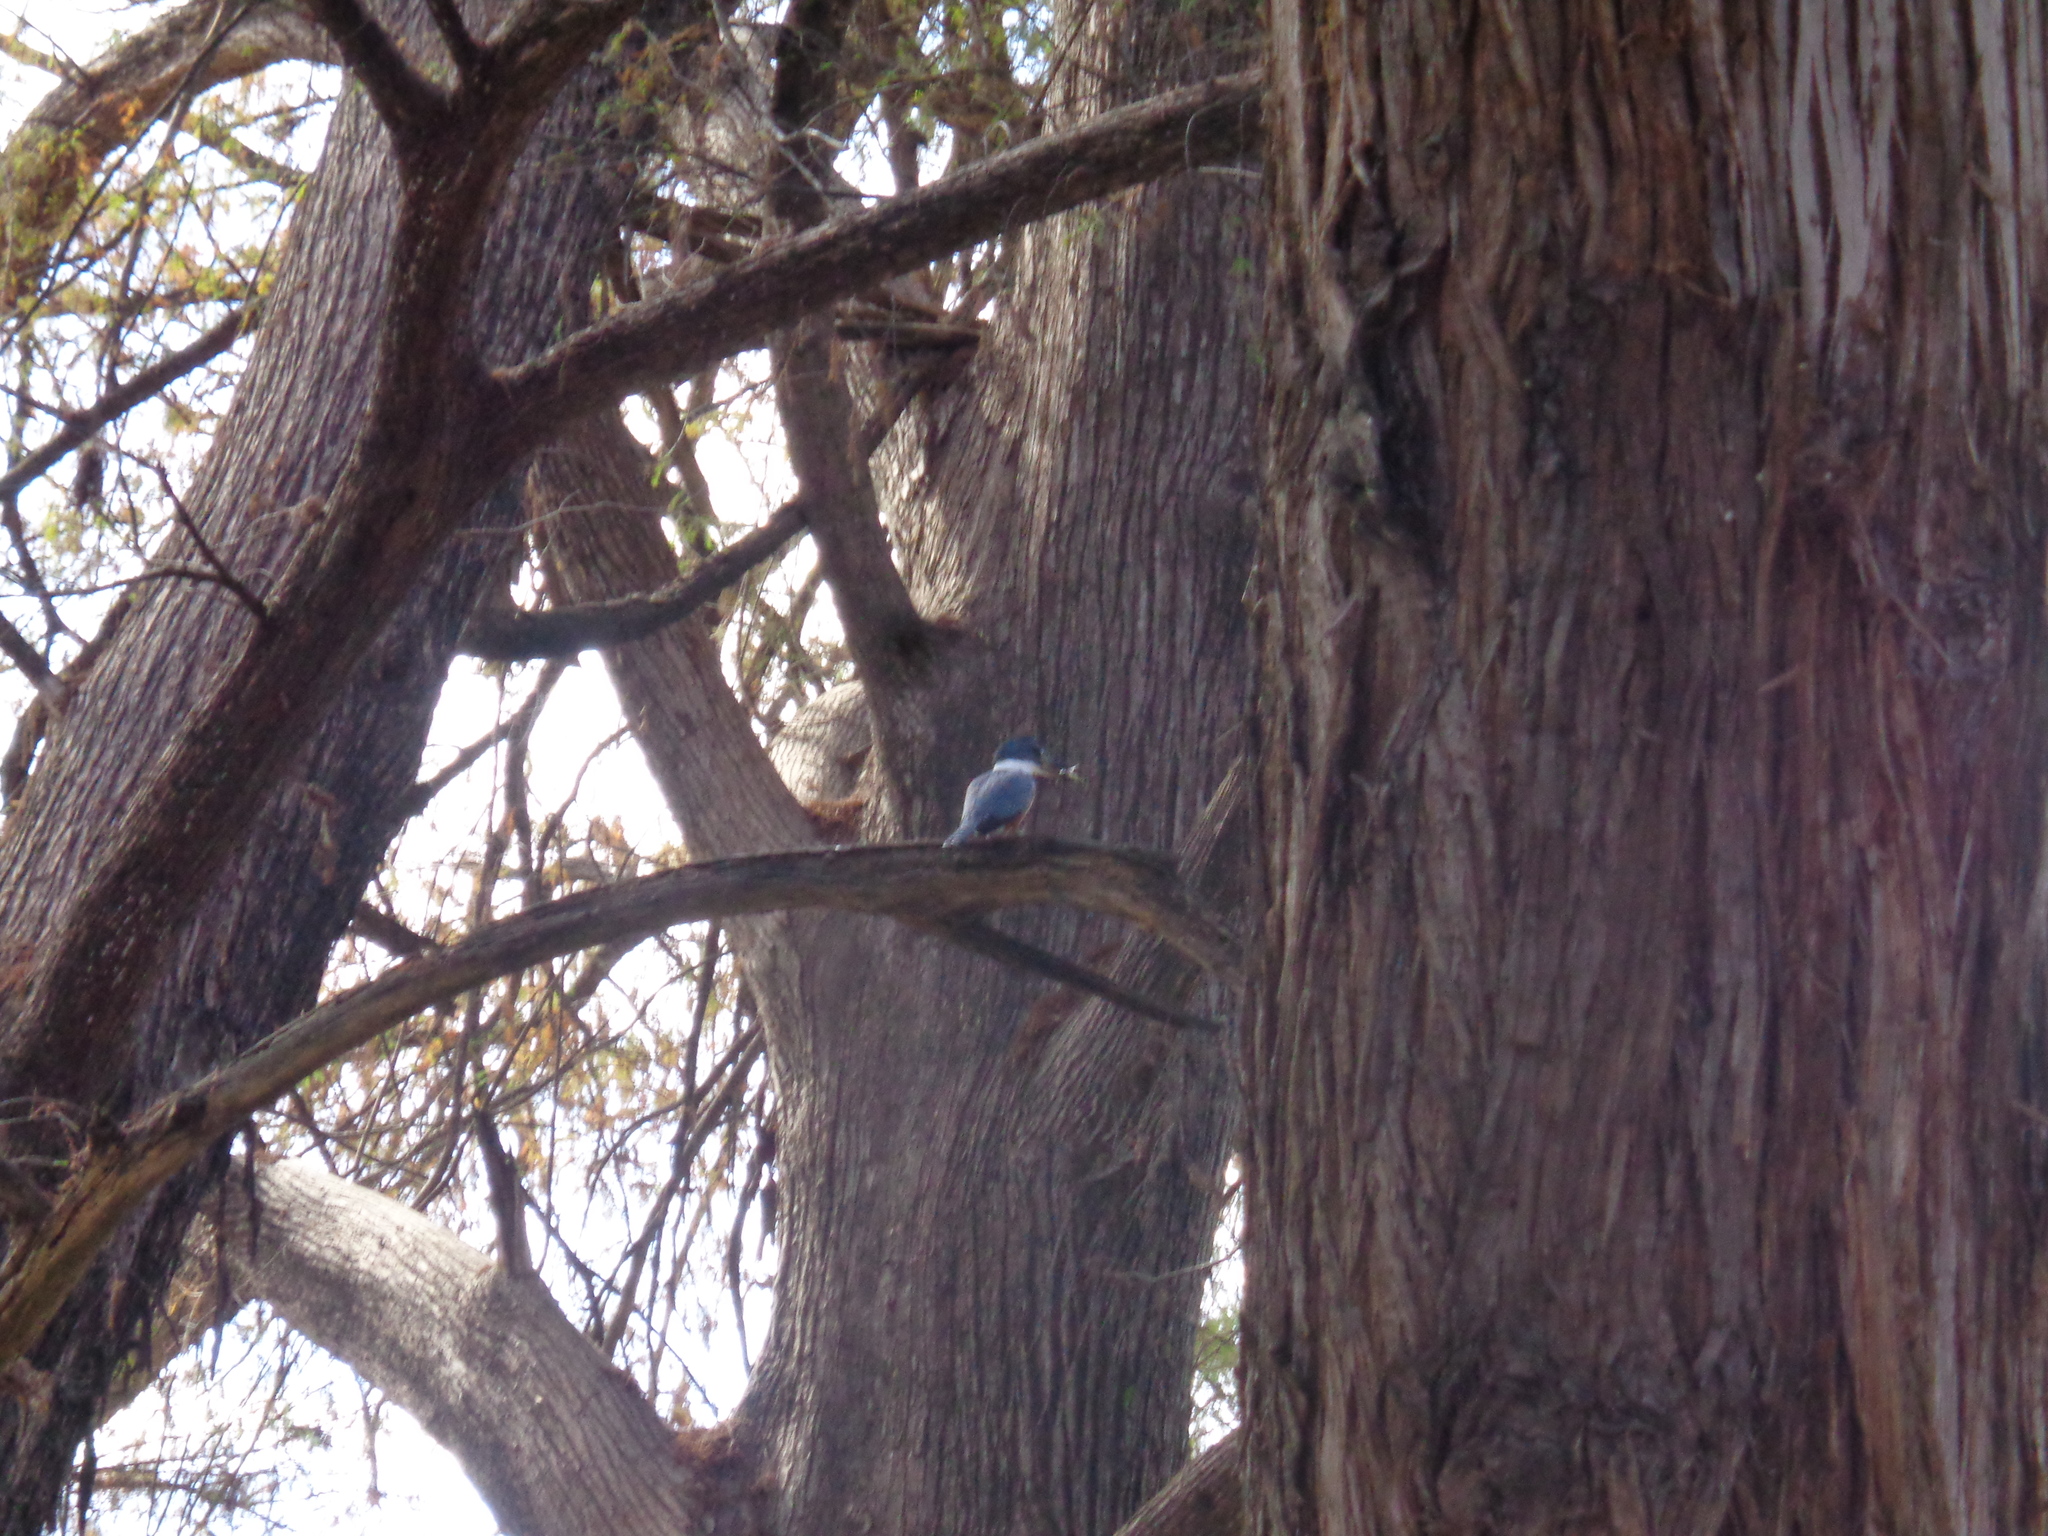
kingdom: Animalia
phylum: Chordata
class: Aves
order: Coraciiformes
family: Alcedinidae
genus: Megaceryle
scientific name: Megaceryle torquata
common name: Ringed kingfisher
